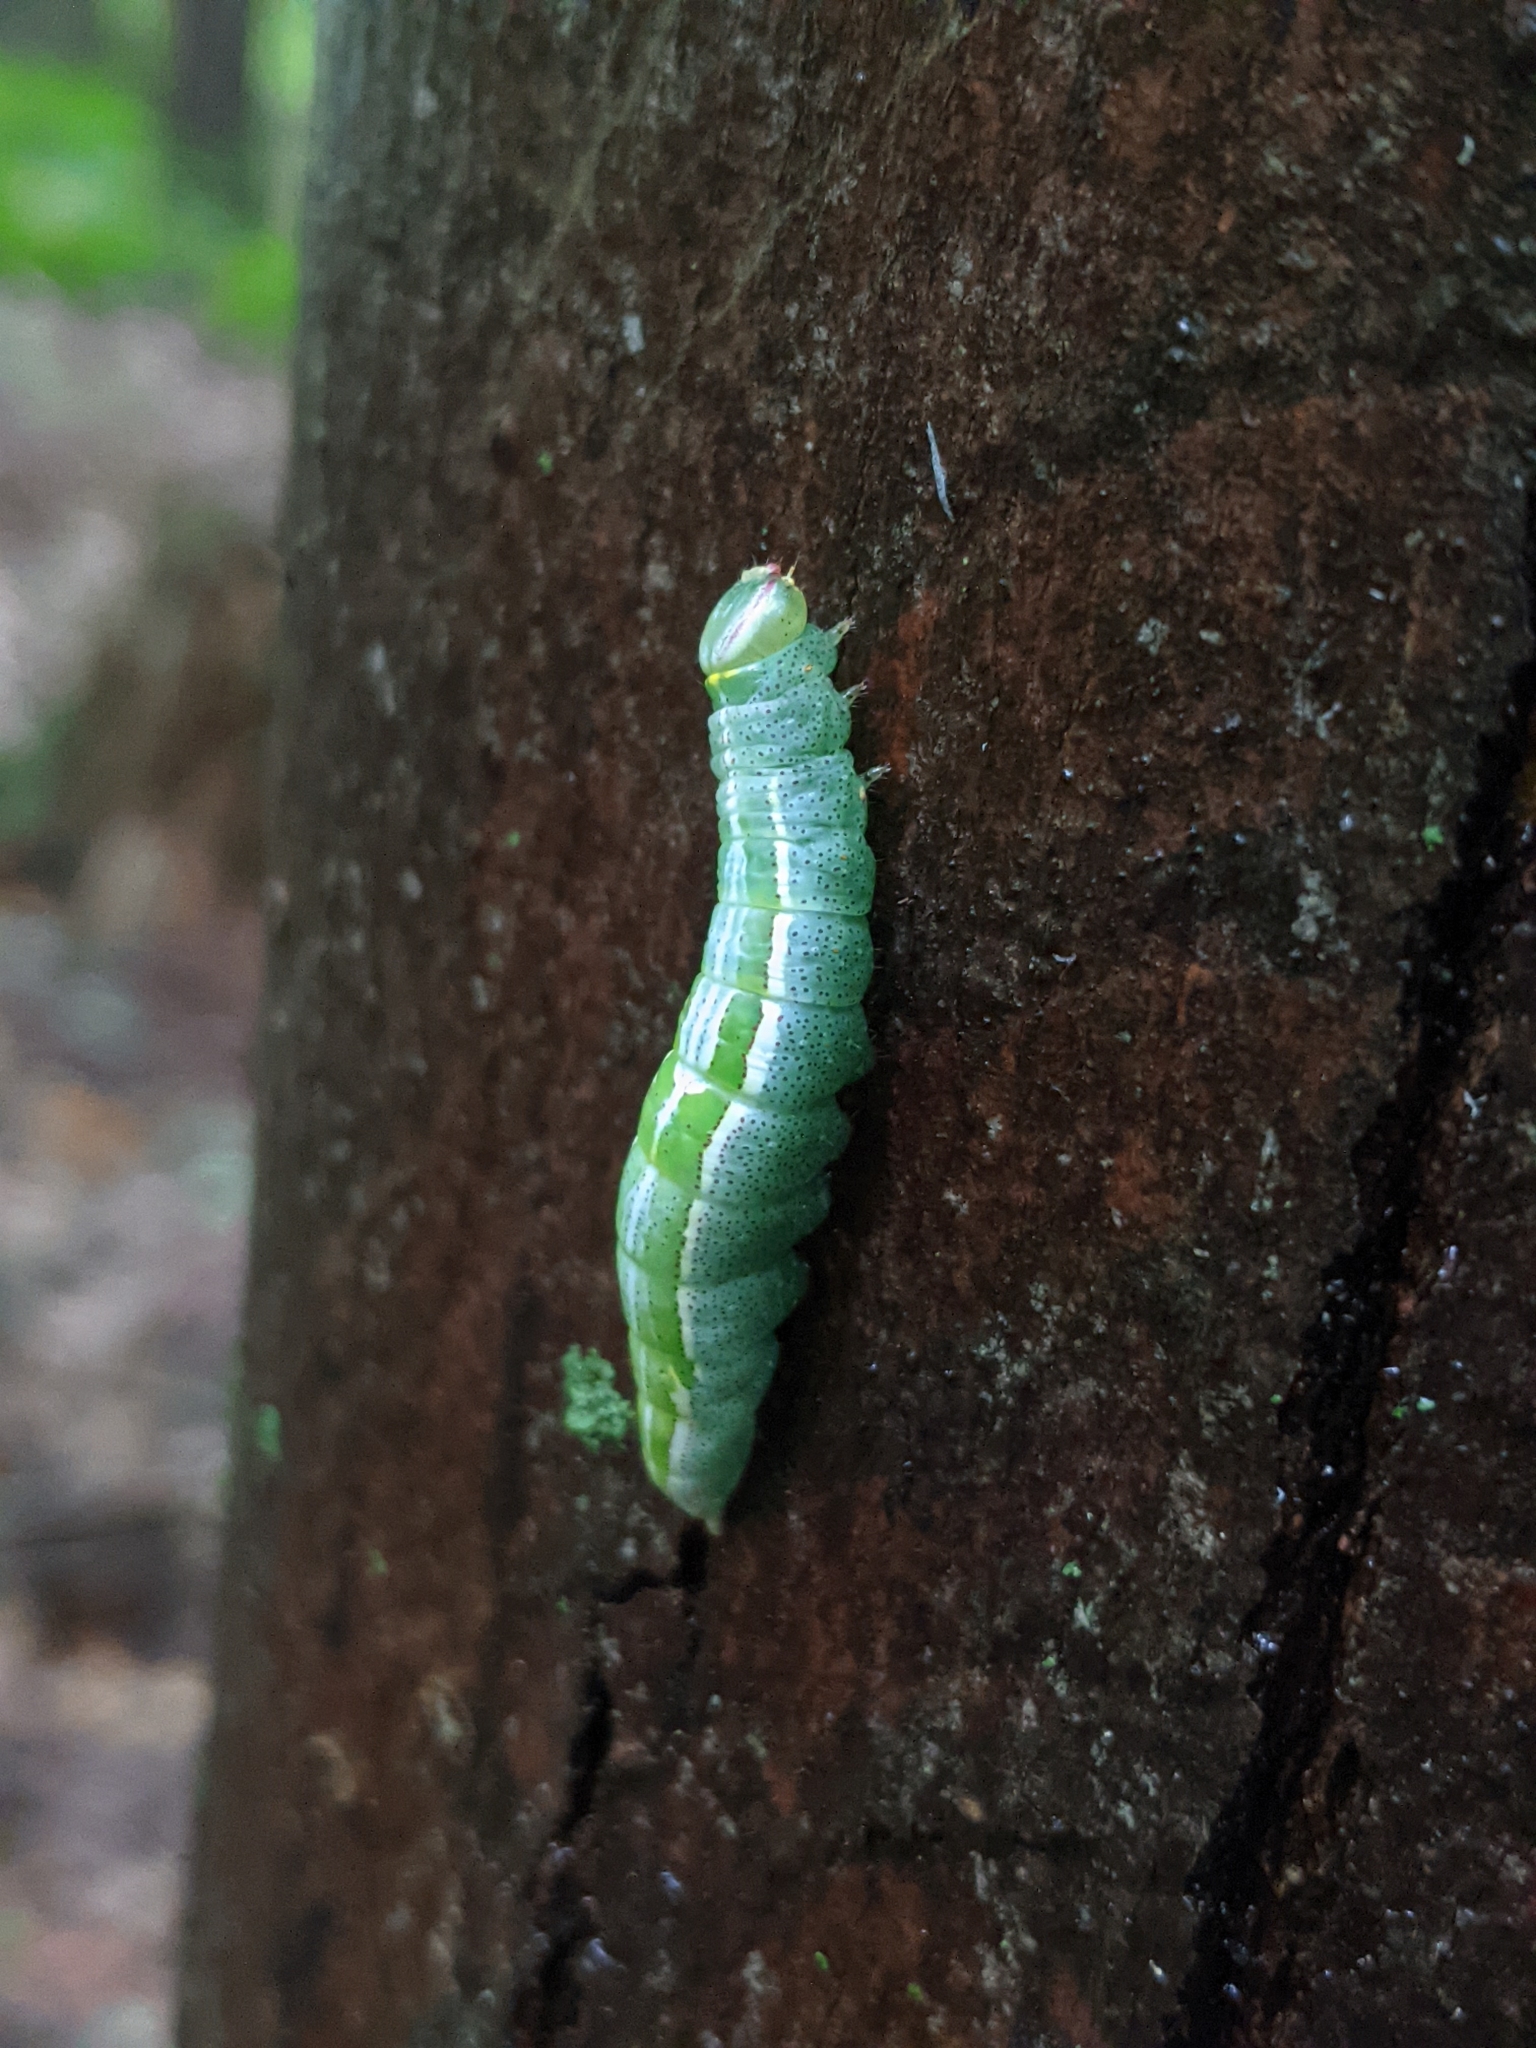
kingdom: Animalia
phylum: Arthropoda
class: Insecta
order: Lepidoptera
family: Notodontidae
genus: Disphragis
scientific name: Disphragis Cecrita guttivitta
